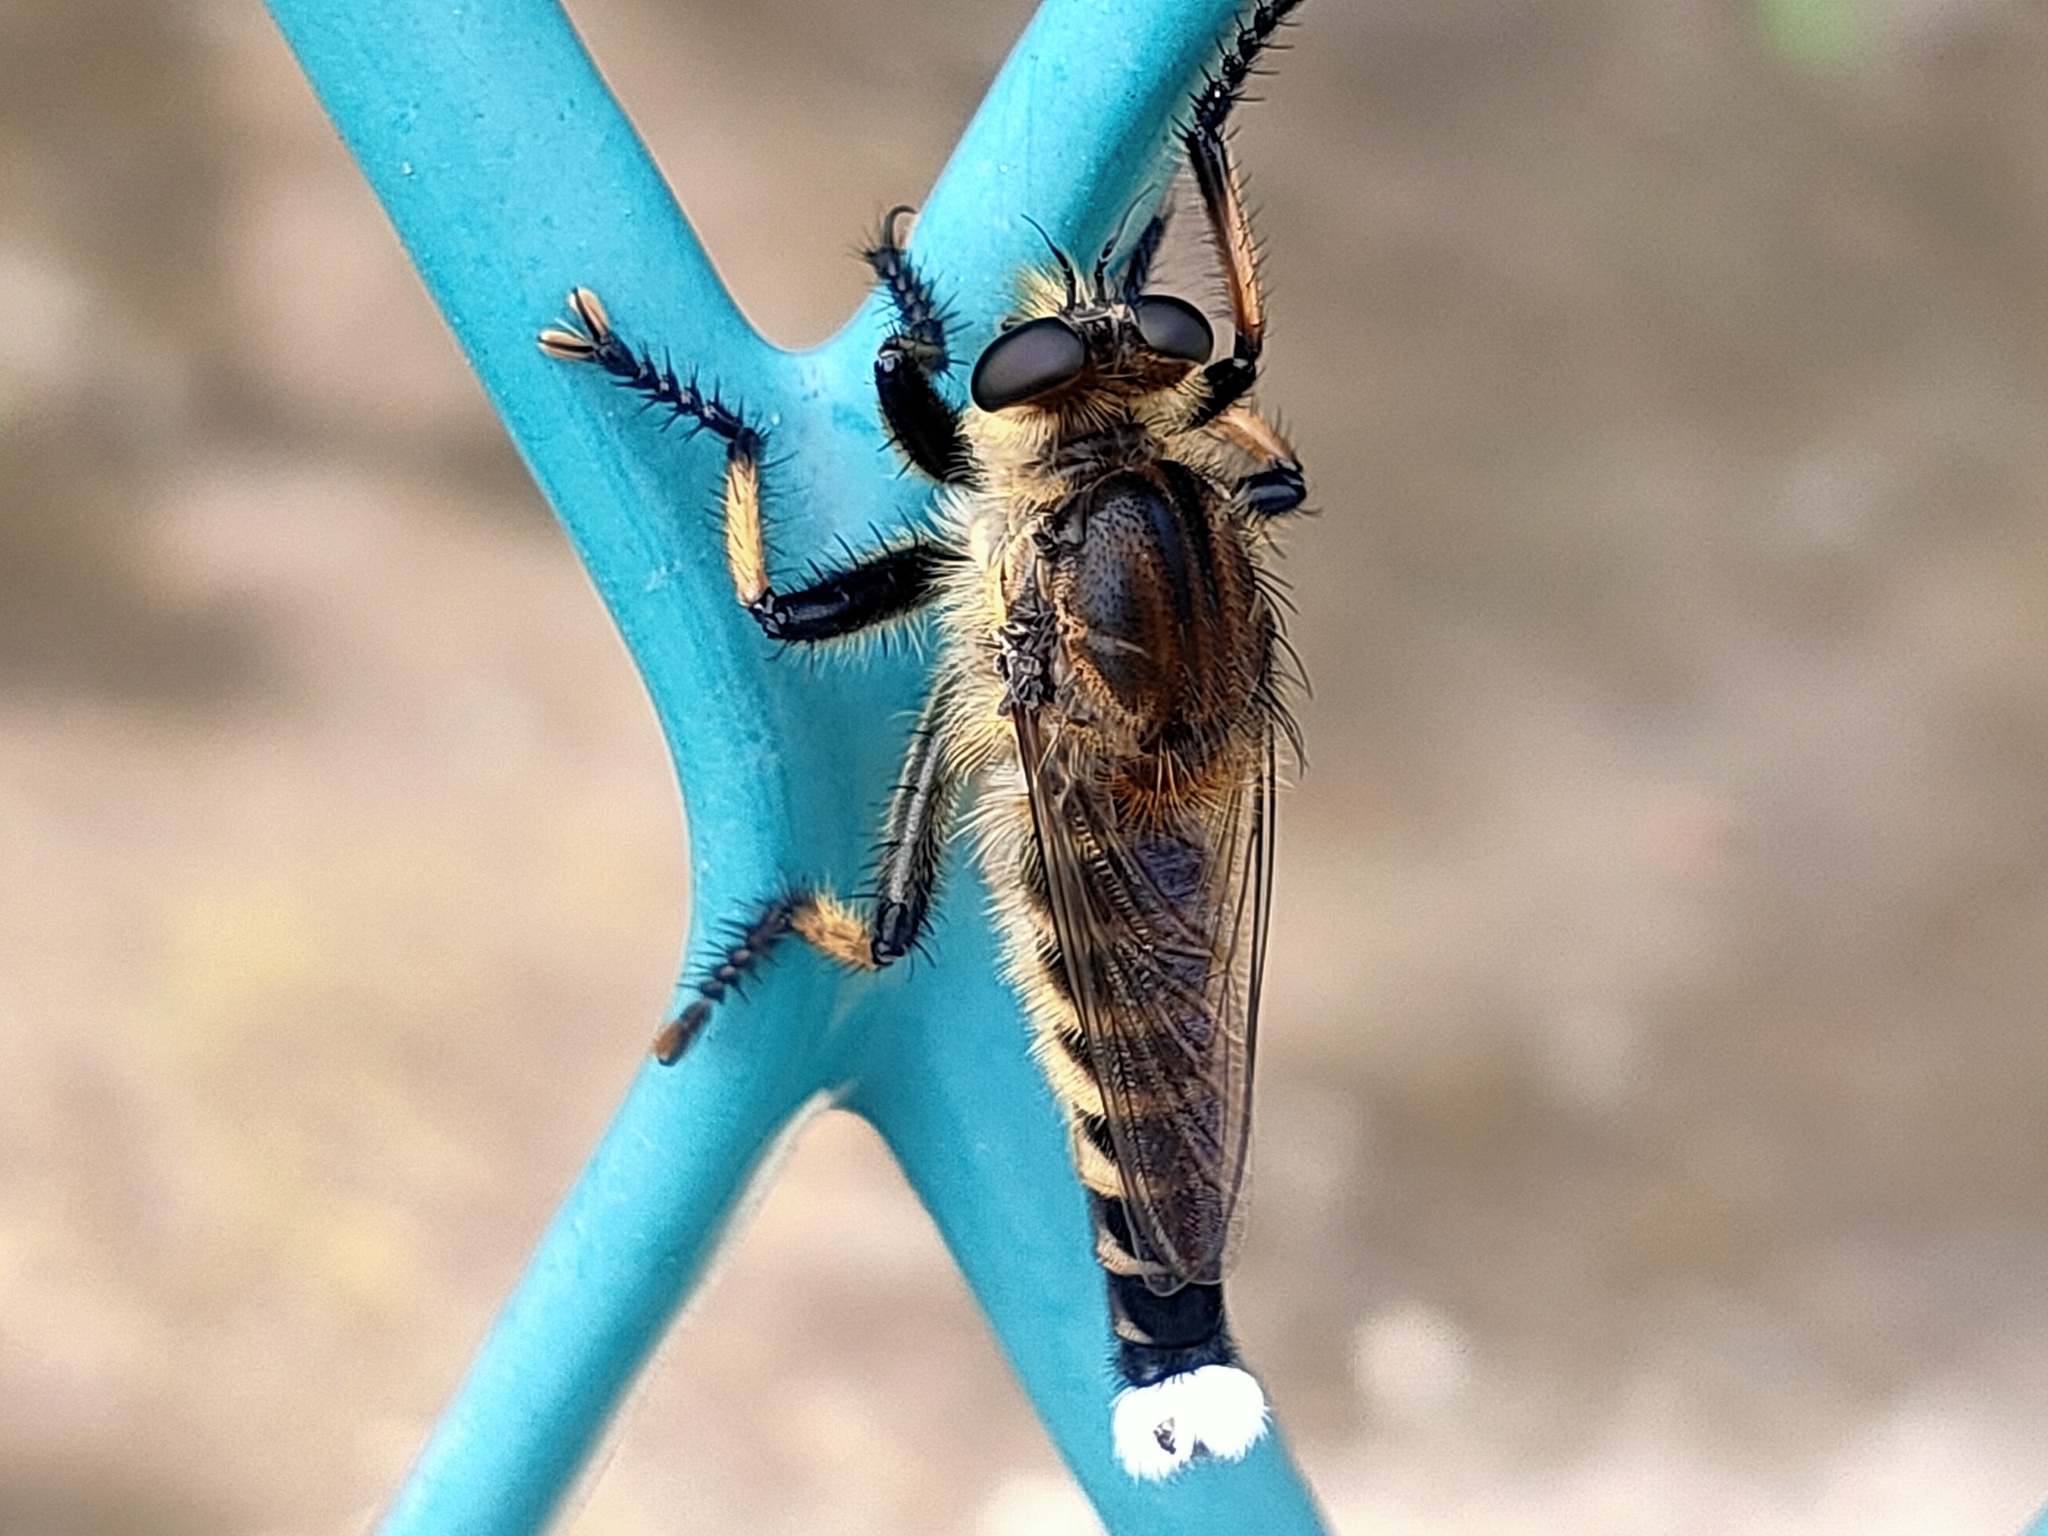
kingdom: Animalia
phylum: Arthropoda
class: Insecta
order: Diptera
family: Asilidae
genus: Promachus
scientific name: Promachus yesonicus
